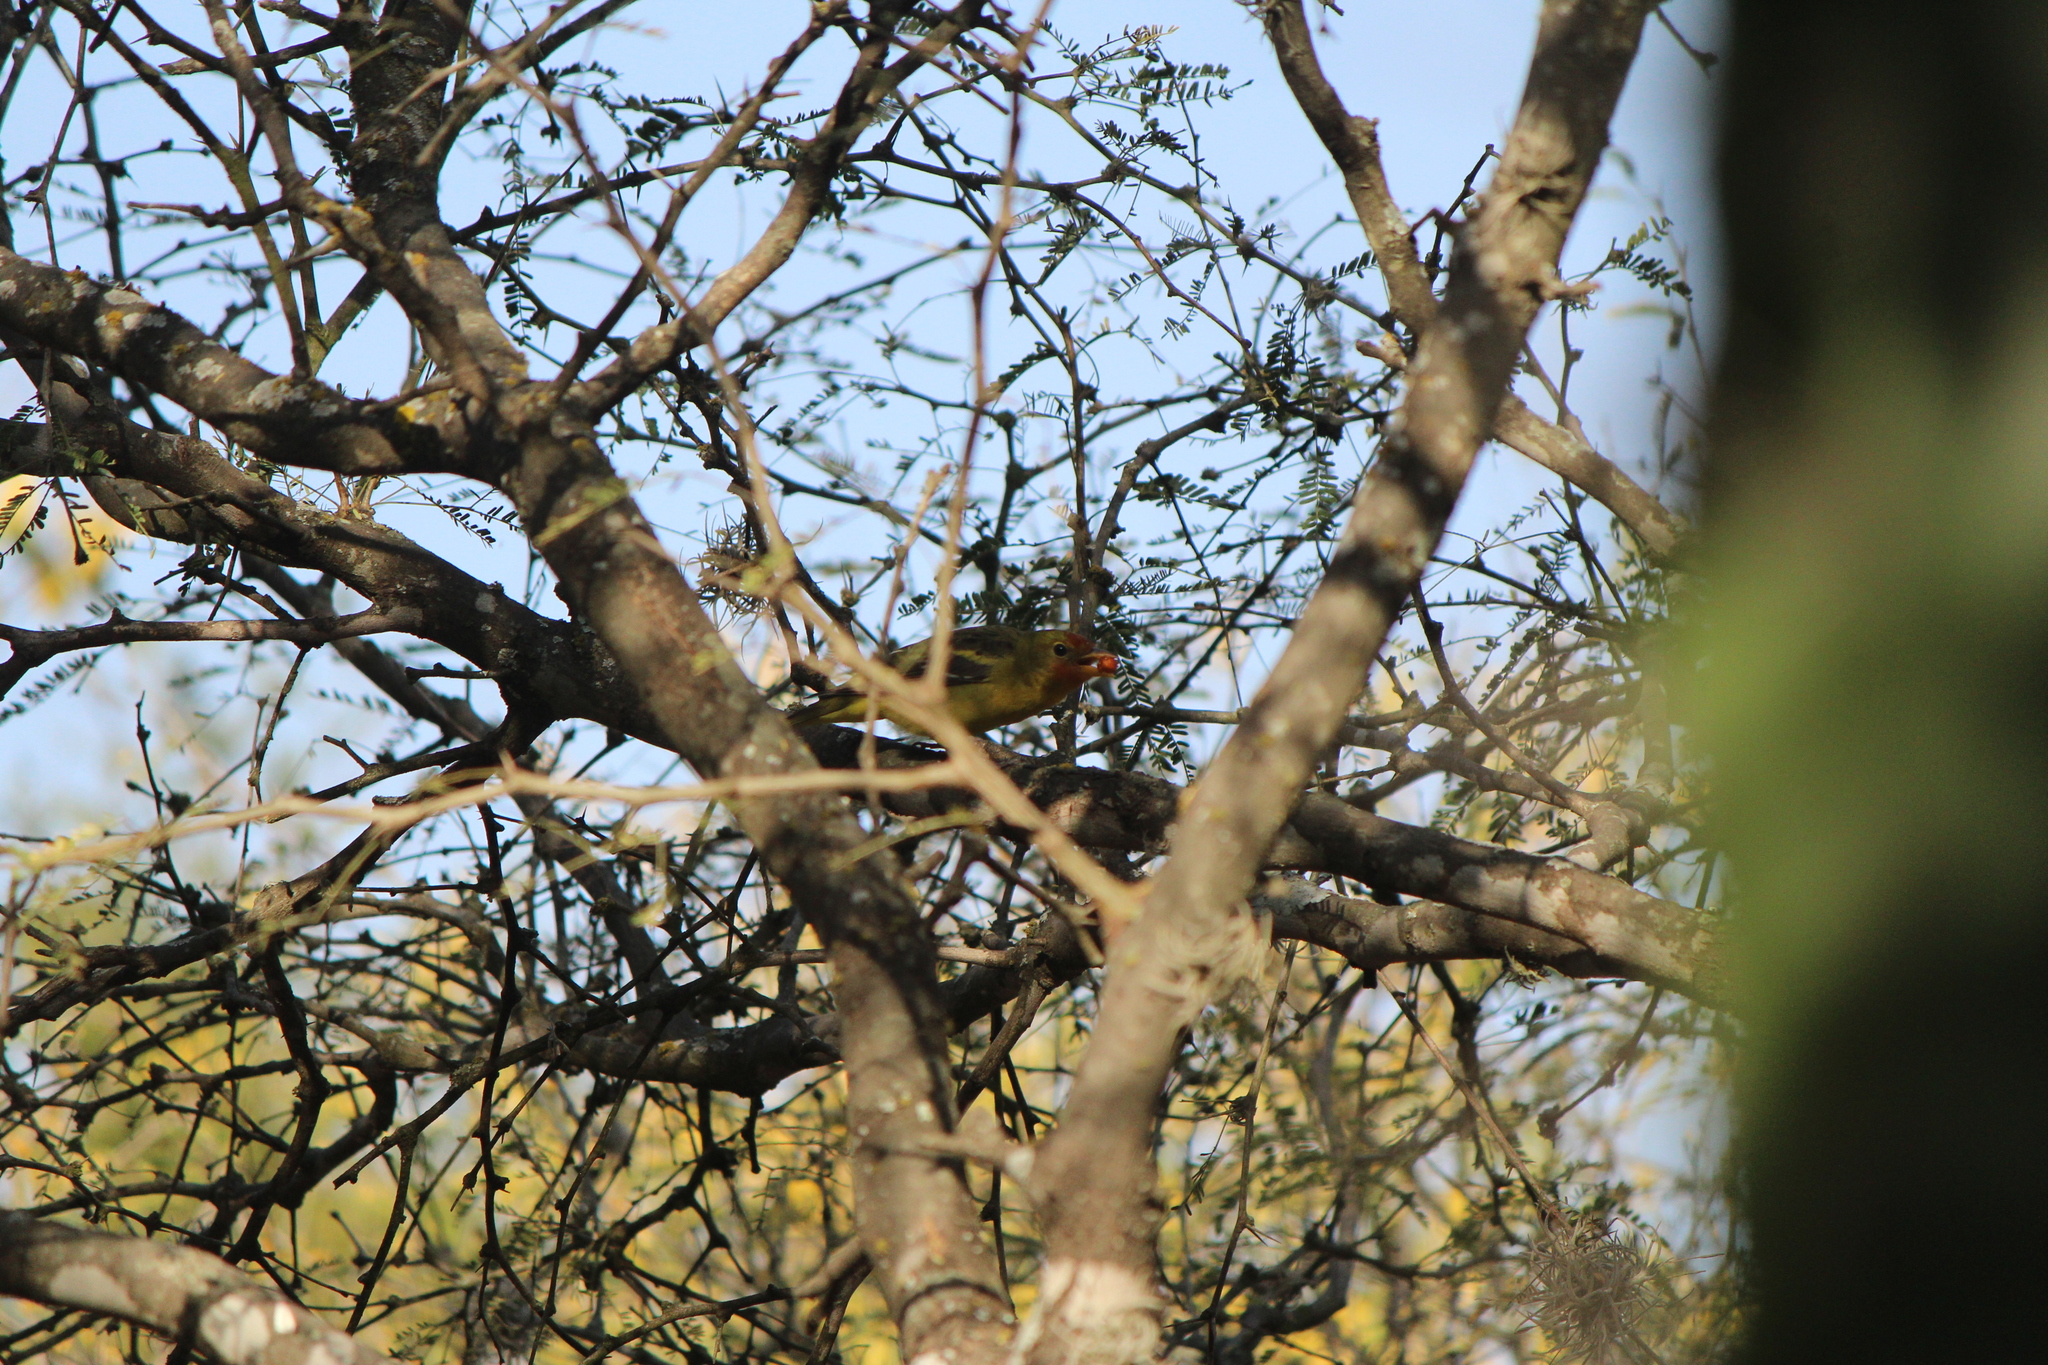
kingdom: Animalia
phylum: Chordata
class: Aves
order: Passeriformes
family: Cardinalidae
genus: Piranga
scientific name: Piranga ludoviciana
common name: Western tanager
